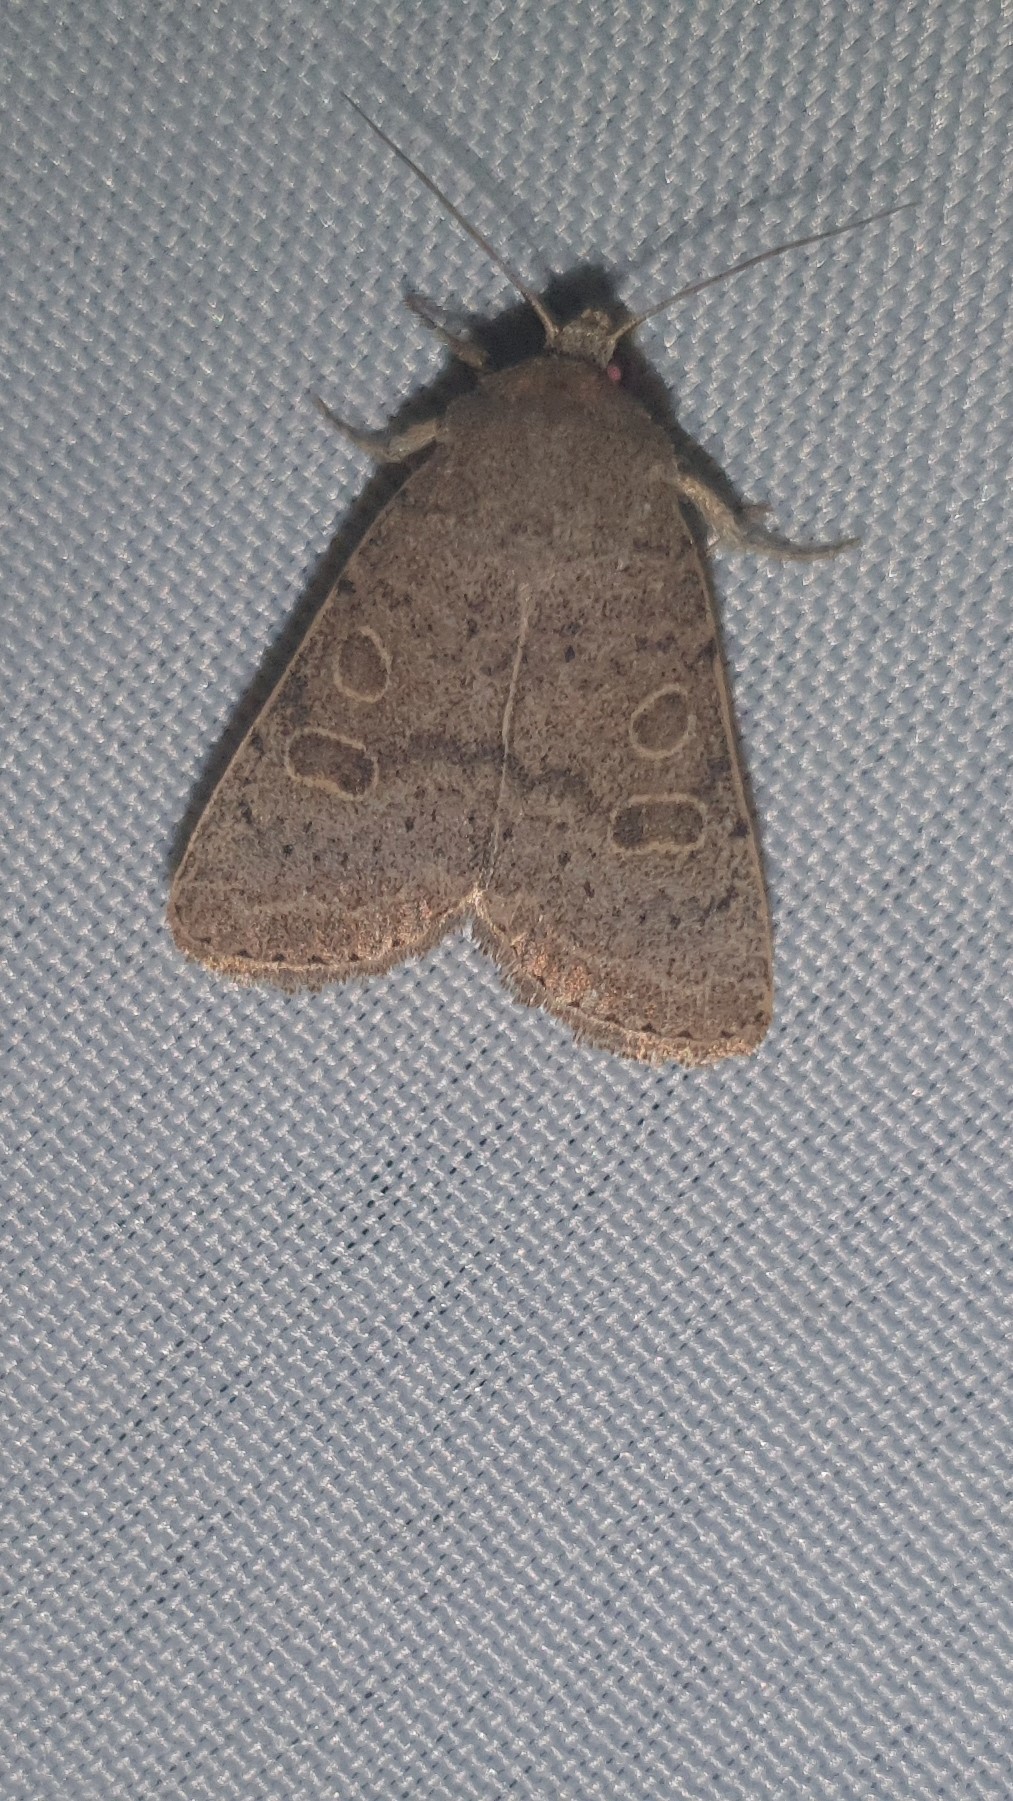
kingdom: Animalia
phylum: Arthropoda
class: Insecta
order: Lepidoptera
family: Noctuidae
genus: Hoplodrina
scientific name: Hoplodrina ambigua
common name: Vine's rustic
